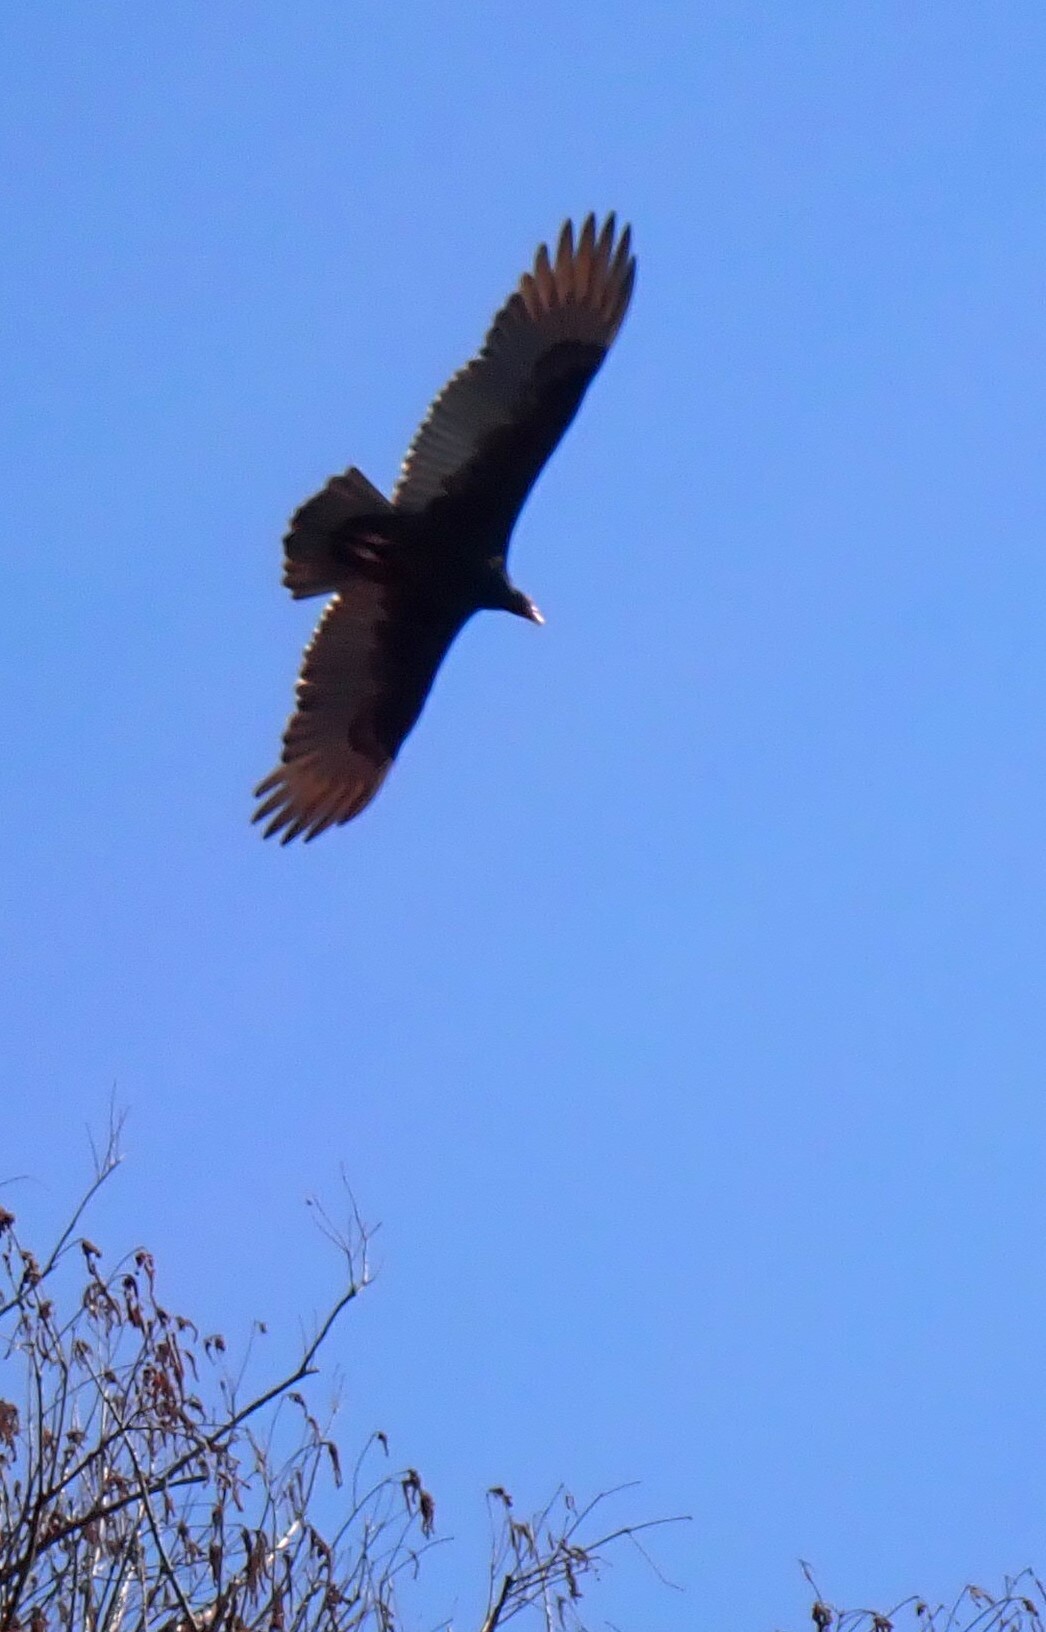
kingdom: Animalia
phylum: Chordata
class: Aves
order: Accipitriformes
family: Cathartidae
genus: Cathartes
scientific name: Cathartes aura
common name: Turkey vulture
